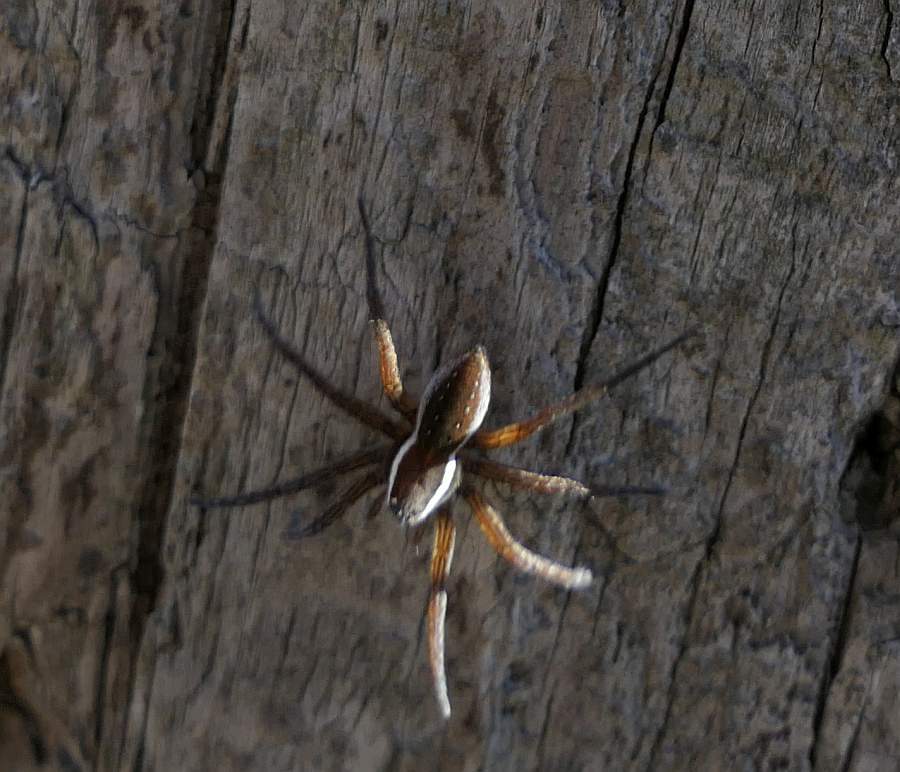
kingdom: Animalia
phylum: Arthropoda
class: Arachnida
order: Araneae
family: Pisauridae
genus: Dolomedes
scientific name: Dolomedes triton
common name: Six-spotted fishing spider
